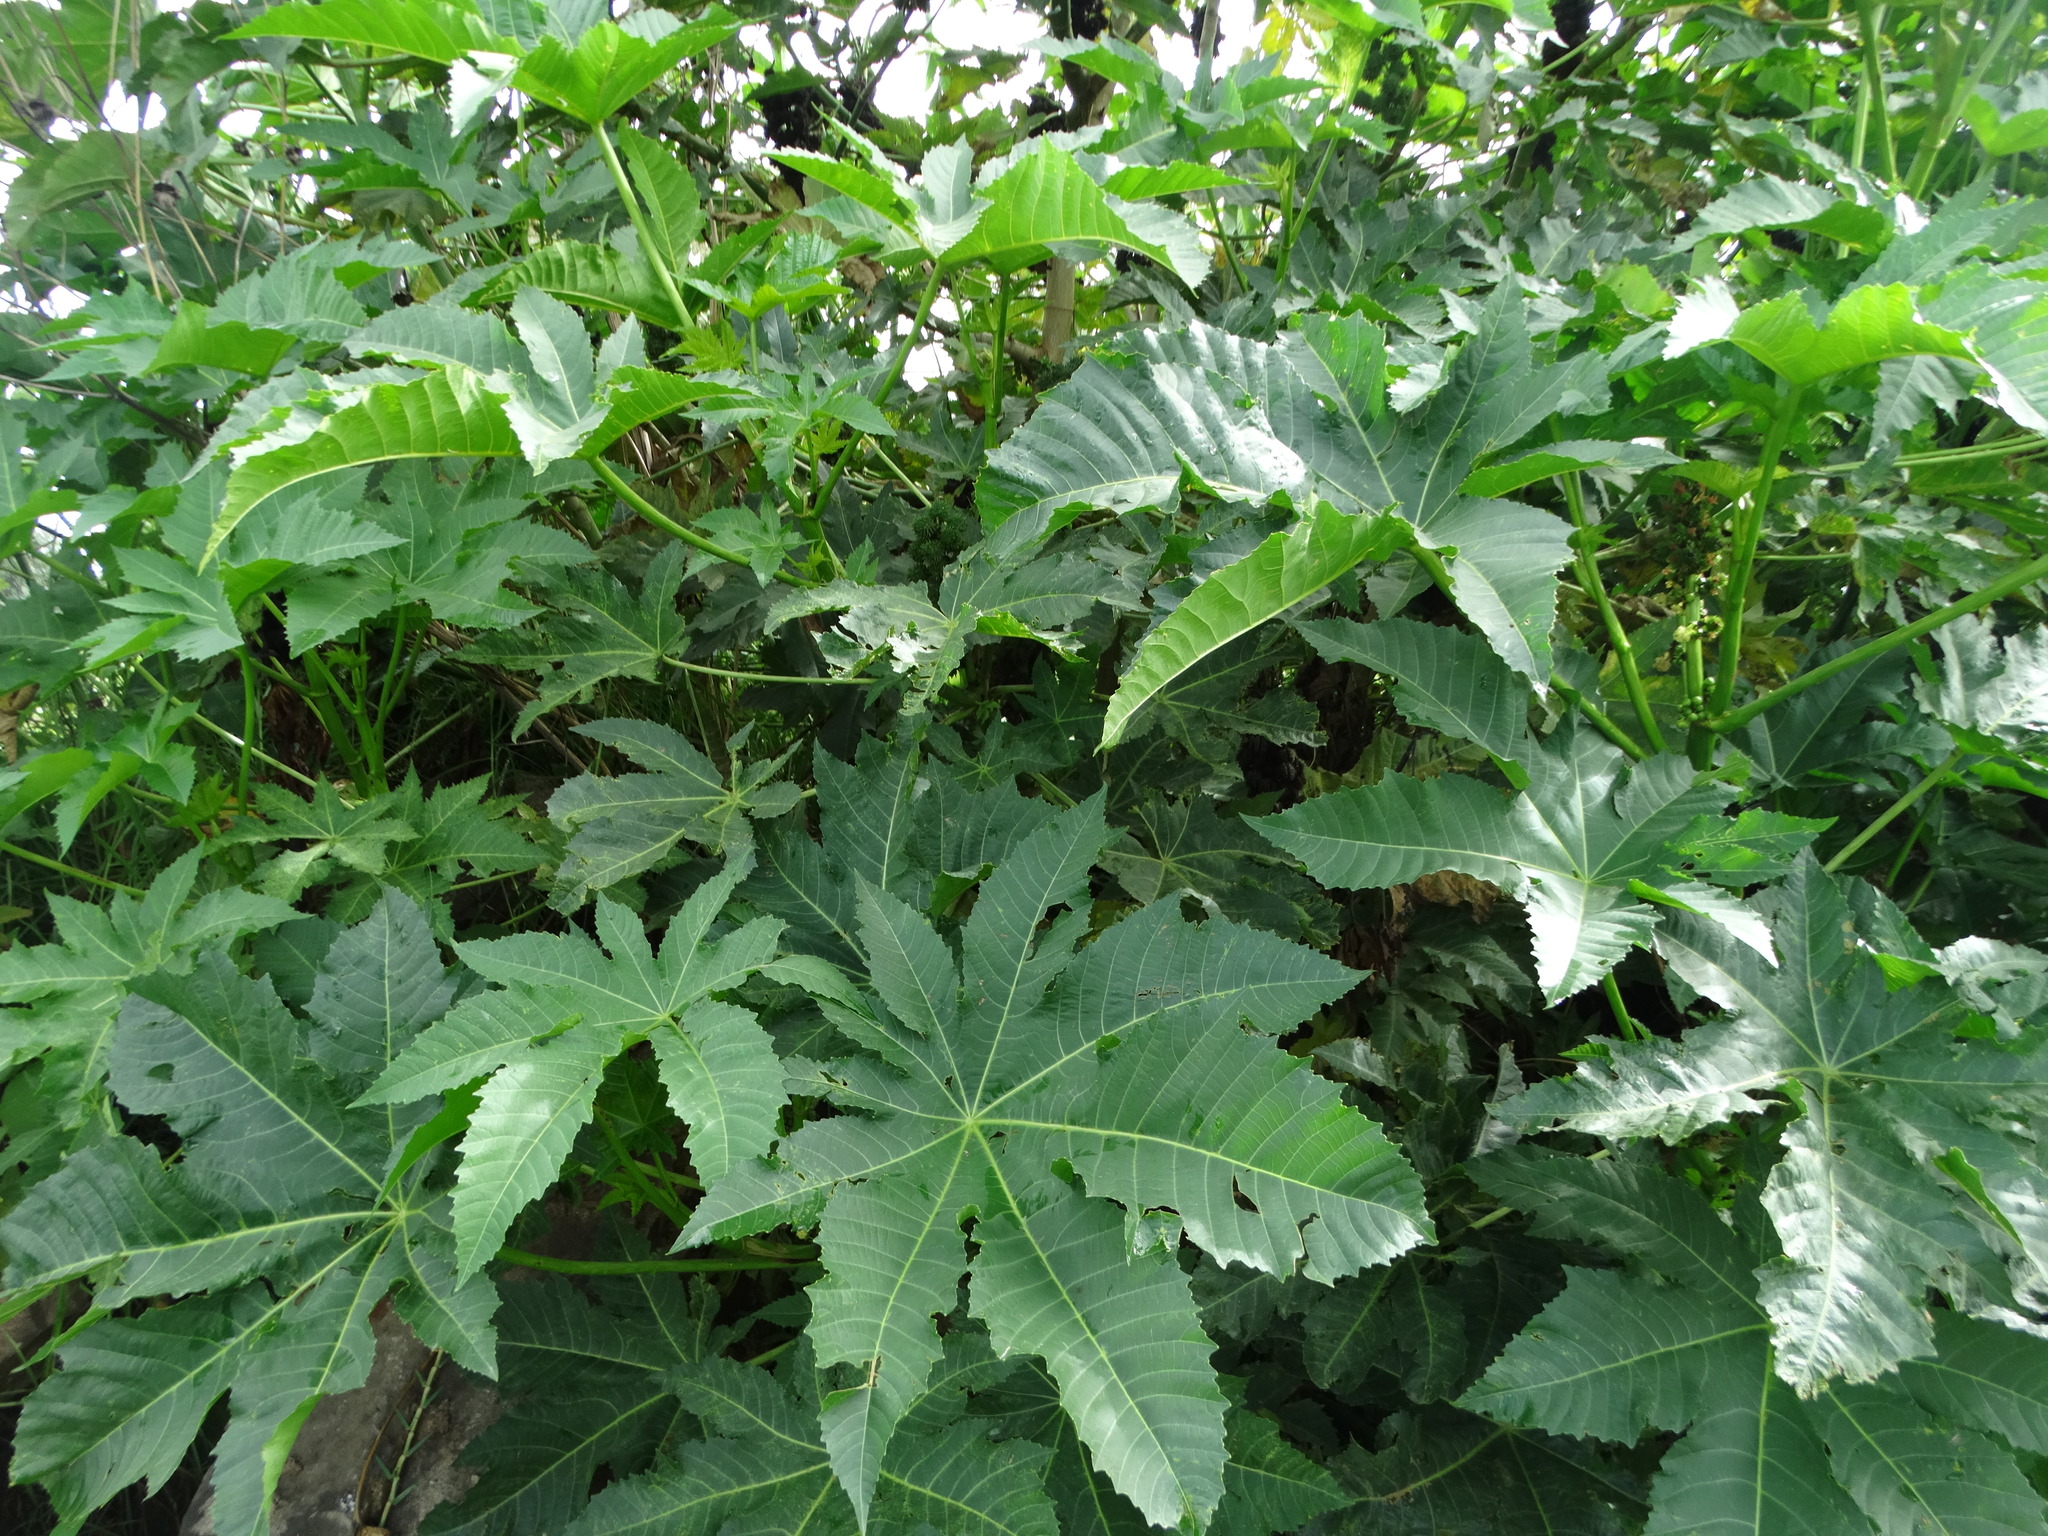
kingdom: Plantae
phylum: Tracheophyta
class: Magnoliopsida
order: Malpighiales
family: Euphorbiaceae
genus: Ricinus
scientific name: Ricinus communis
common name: Castor-oil-plant
